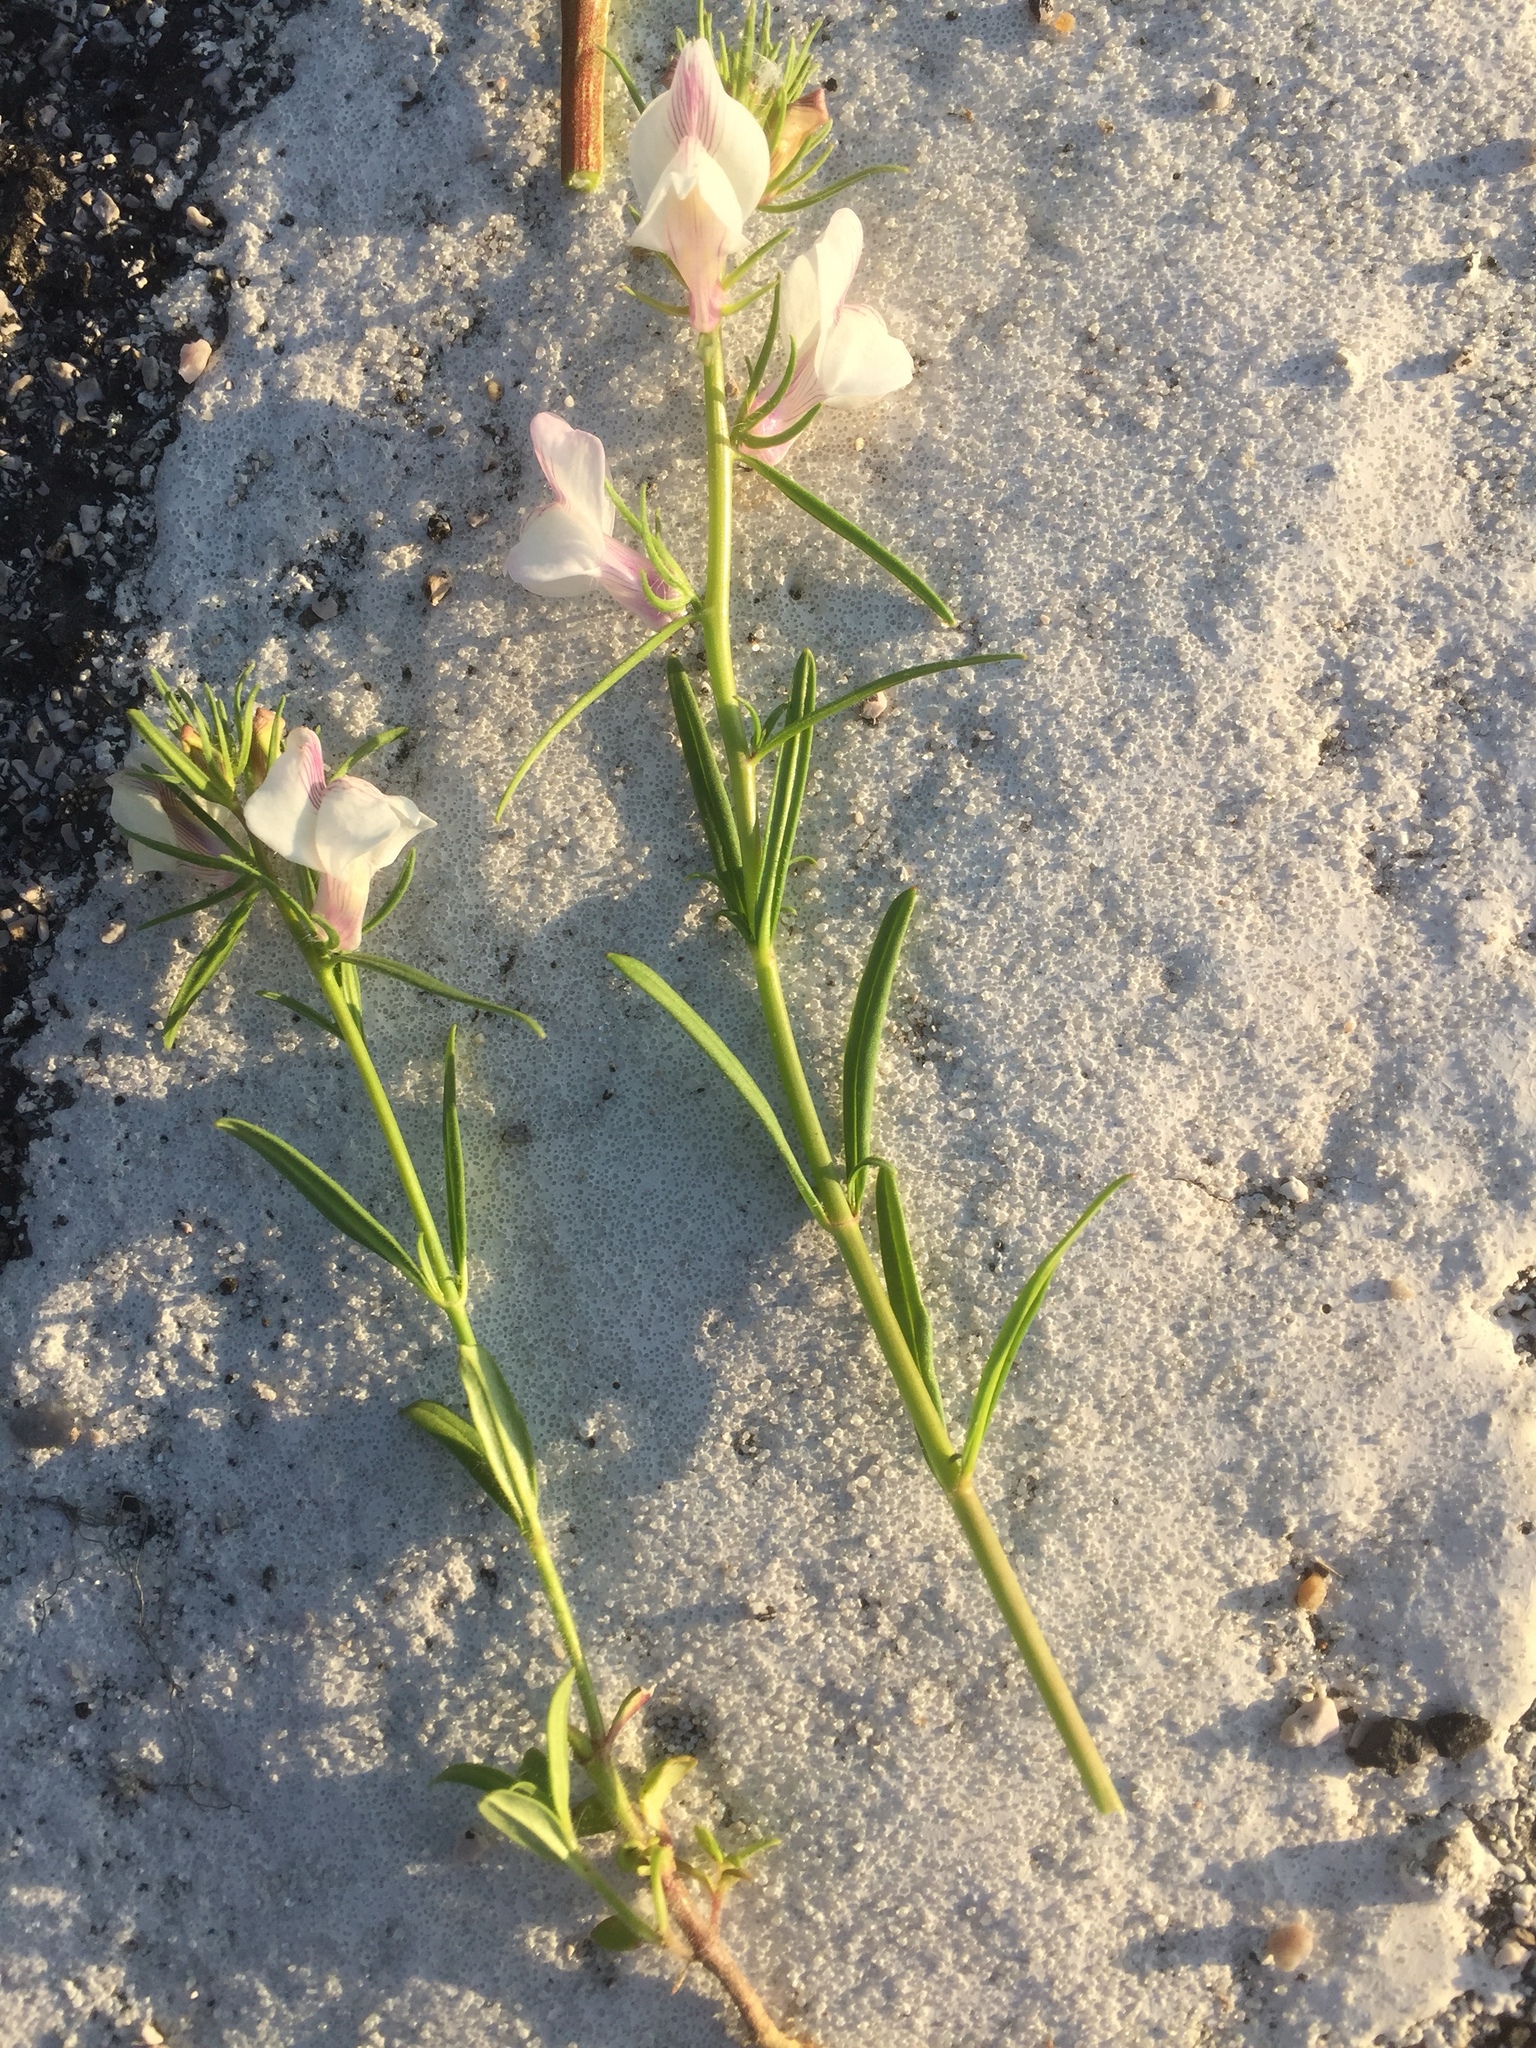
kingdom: Plantae
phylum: Tracheophyta
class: Magnoliopsida
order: Lamiales
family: Plantaginaceae
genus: Misopates
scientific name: Misopates calycinum
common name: Pale weasel's-snout
